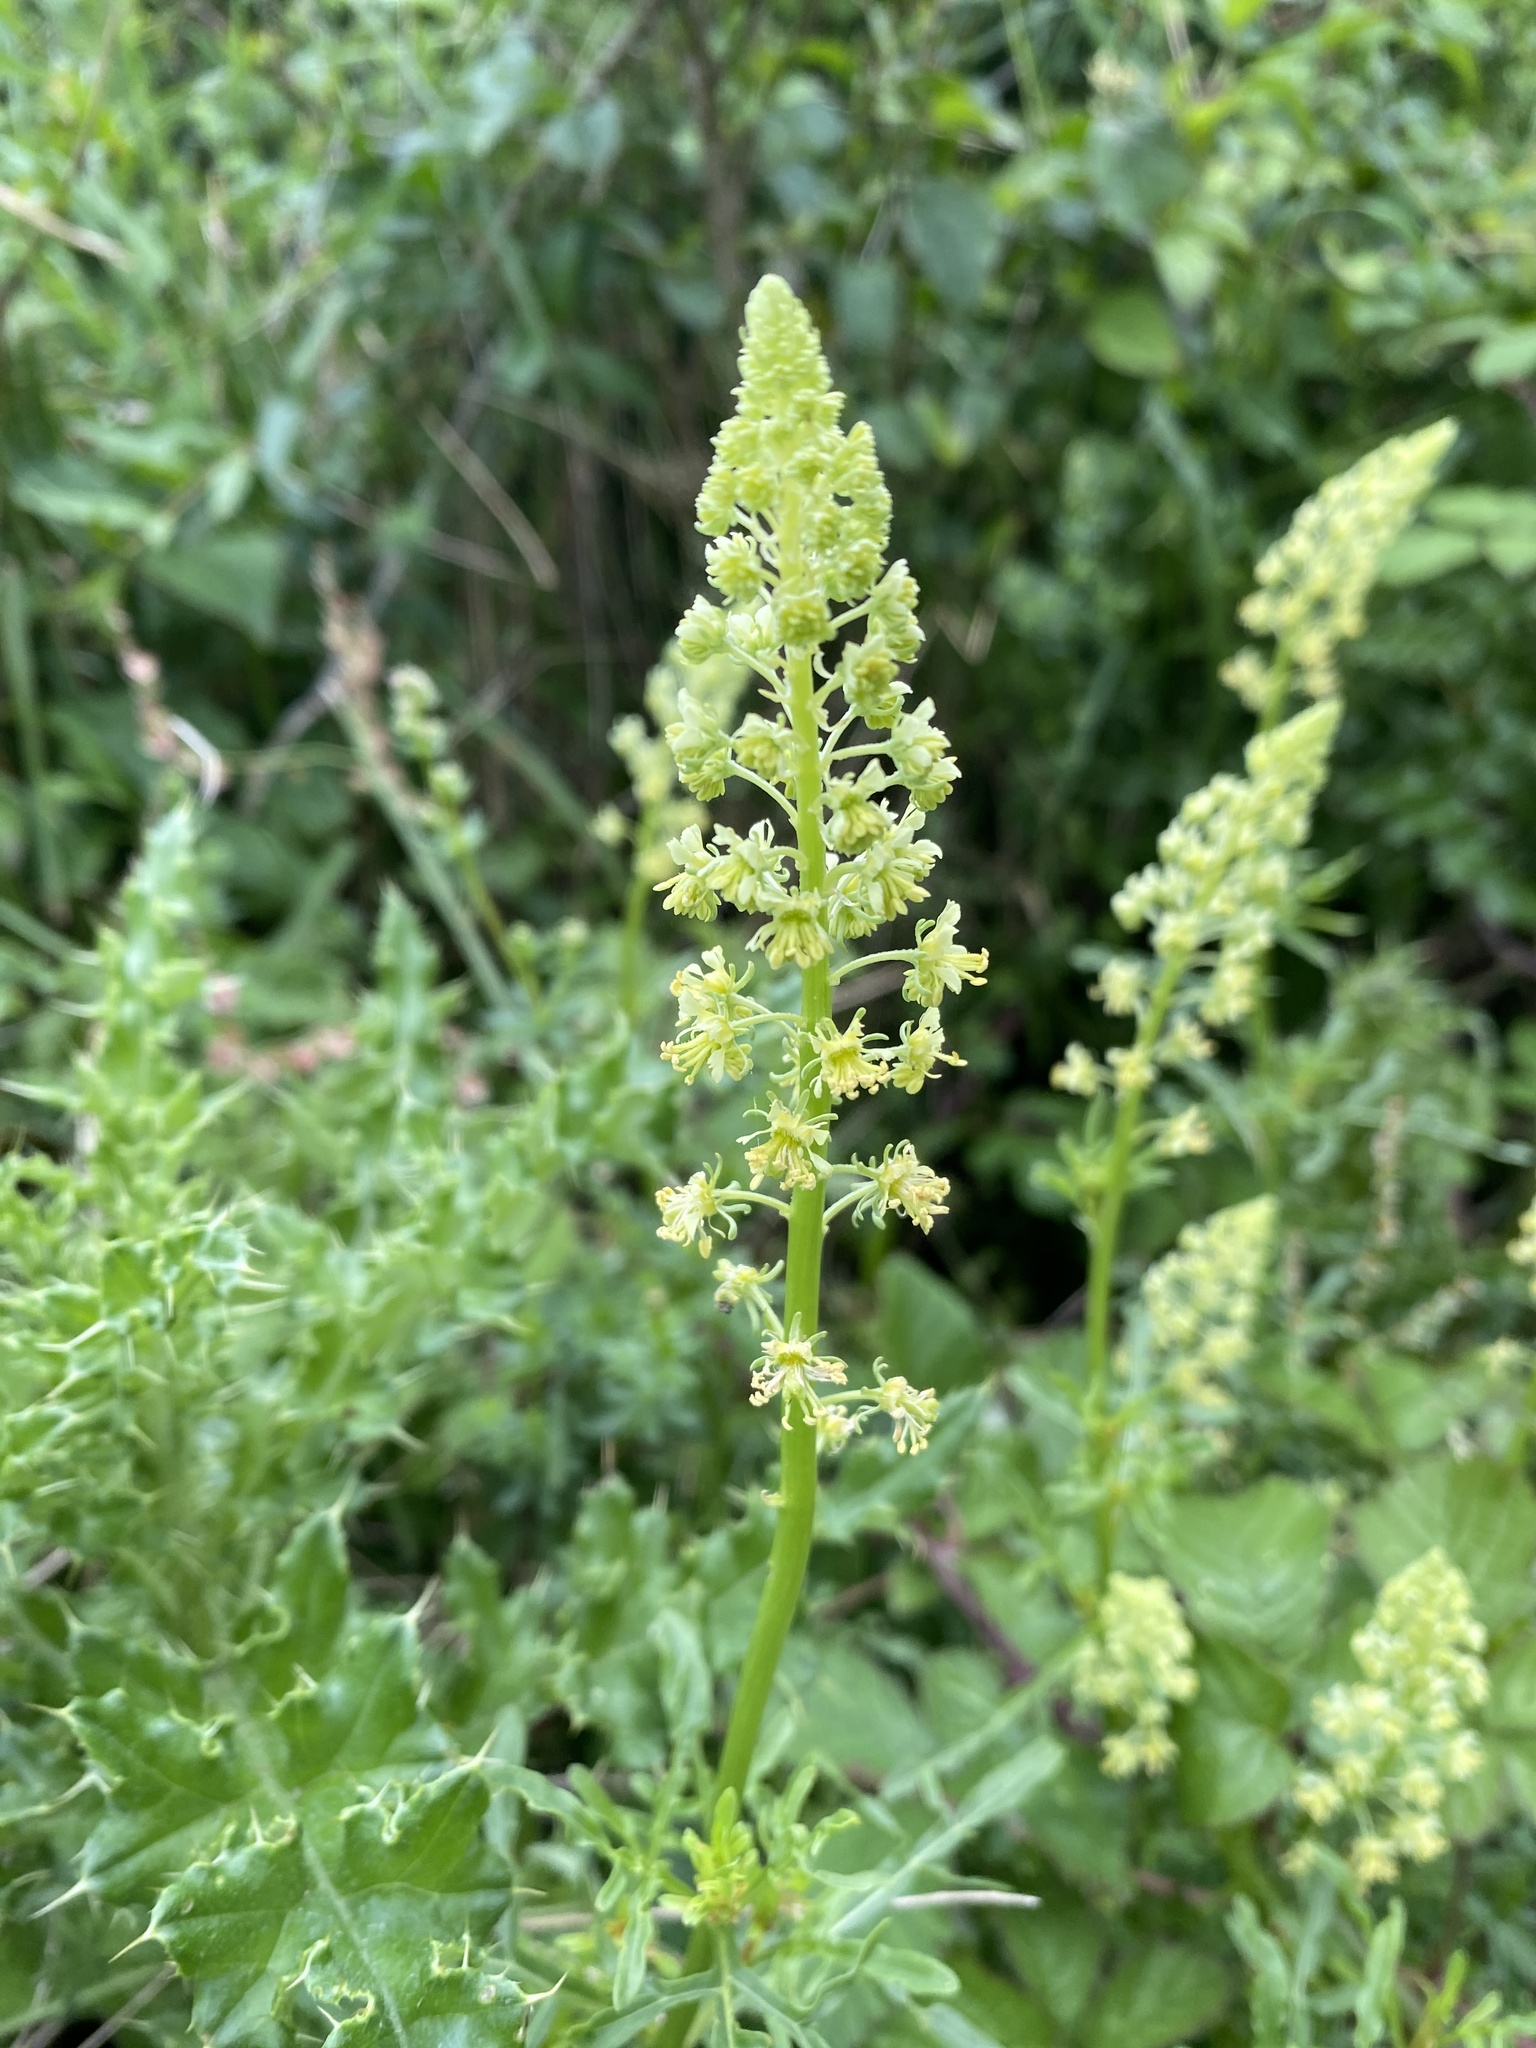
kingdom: Plantae
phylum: Tracheophyta
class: Magnoliopsida
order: Brassicales
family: Resedaceae
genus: Reseda
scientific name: Reseda lutea
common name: Wild mignonette
